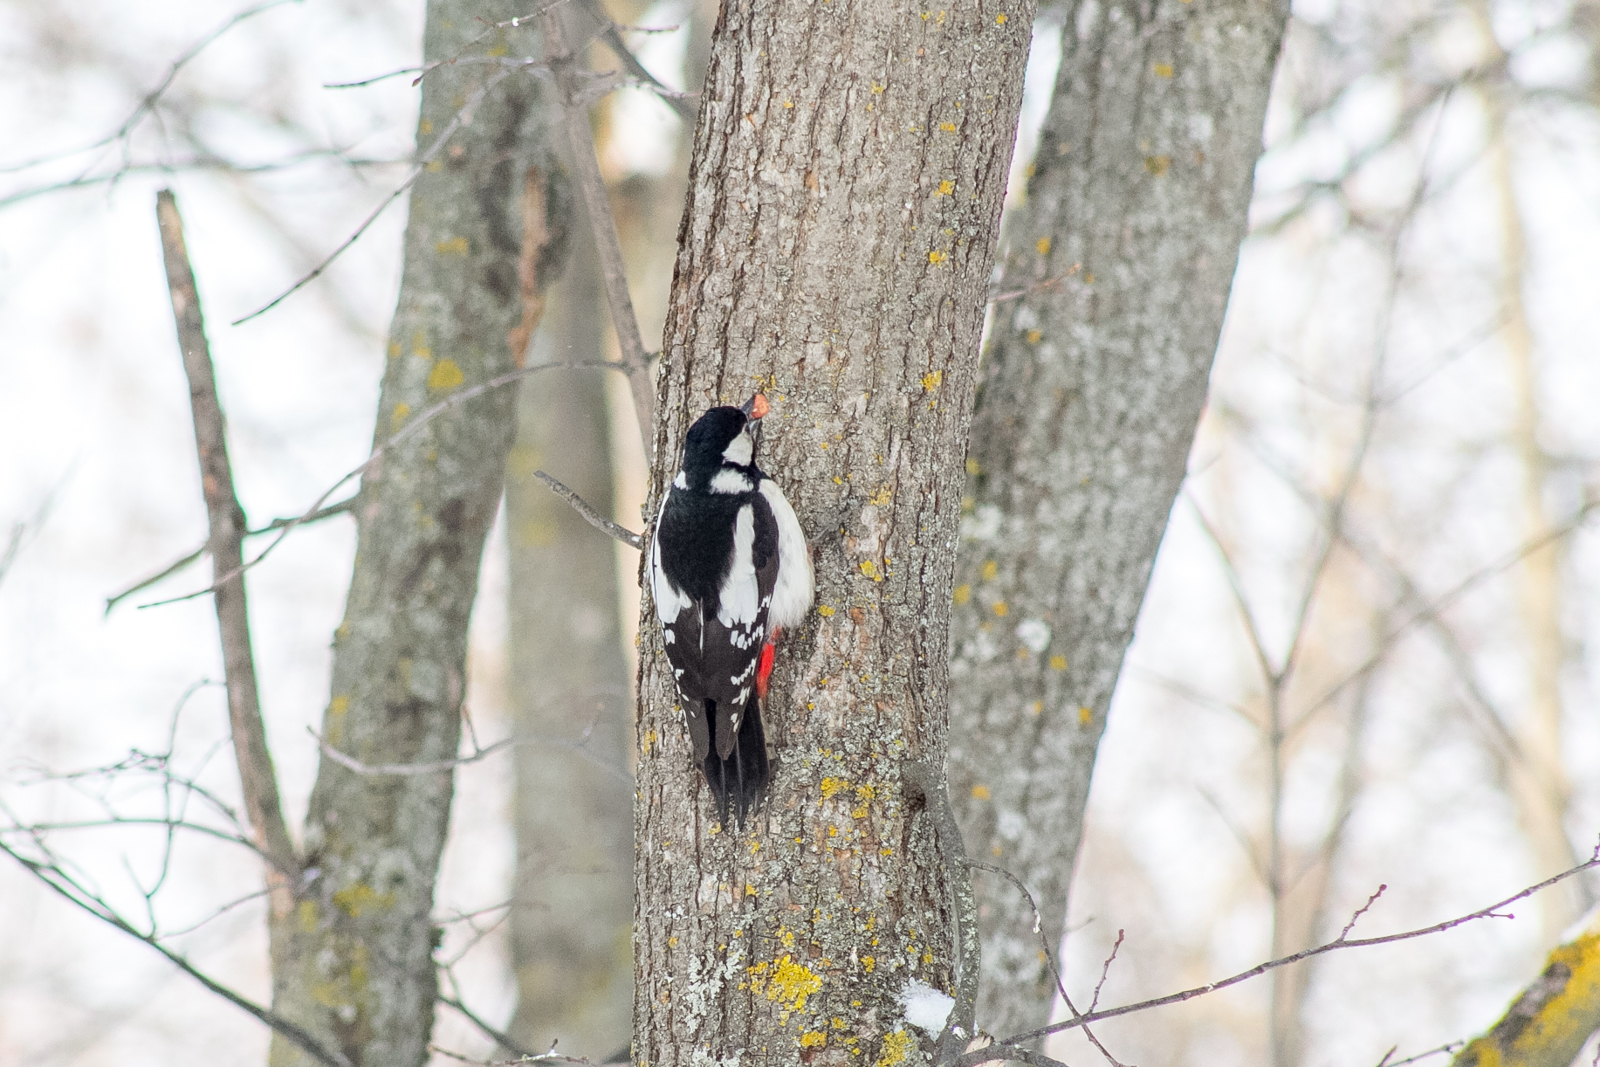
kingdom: Animalia
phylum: Chordata
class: Aves
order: Piciformes
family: Picidae
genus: Dendrocopos
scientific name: Dendrocopos major
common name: Great spotted woodpecker
